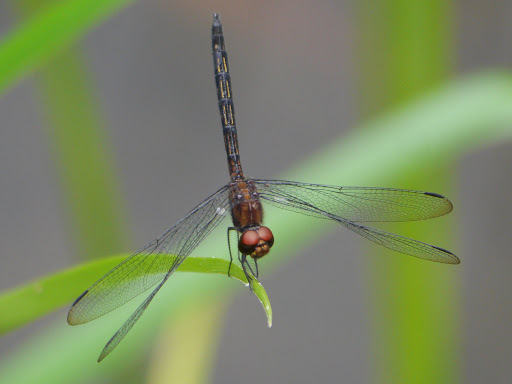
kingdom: Animalia
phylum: Arthropoda
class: Insecta
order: Odonata
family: Libellulidae
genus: Trithemis
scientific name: Trithemis aenea
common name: Bronze dropwing
